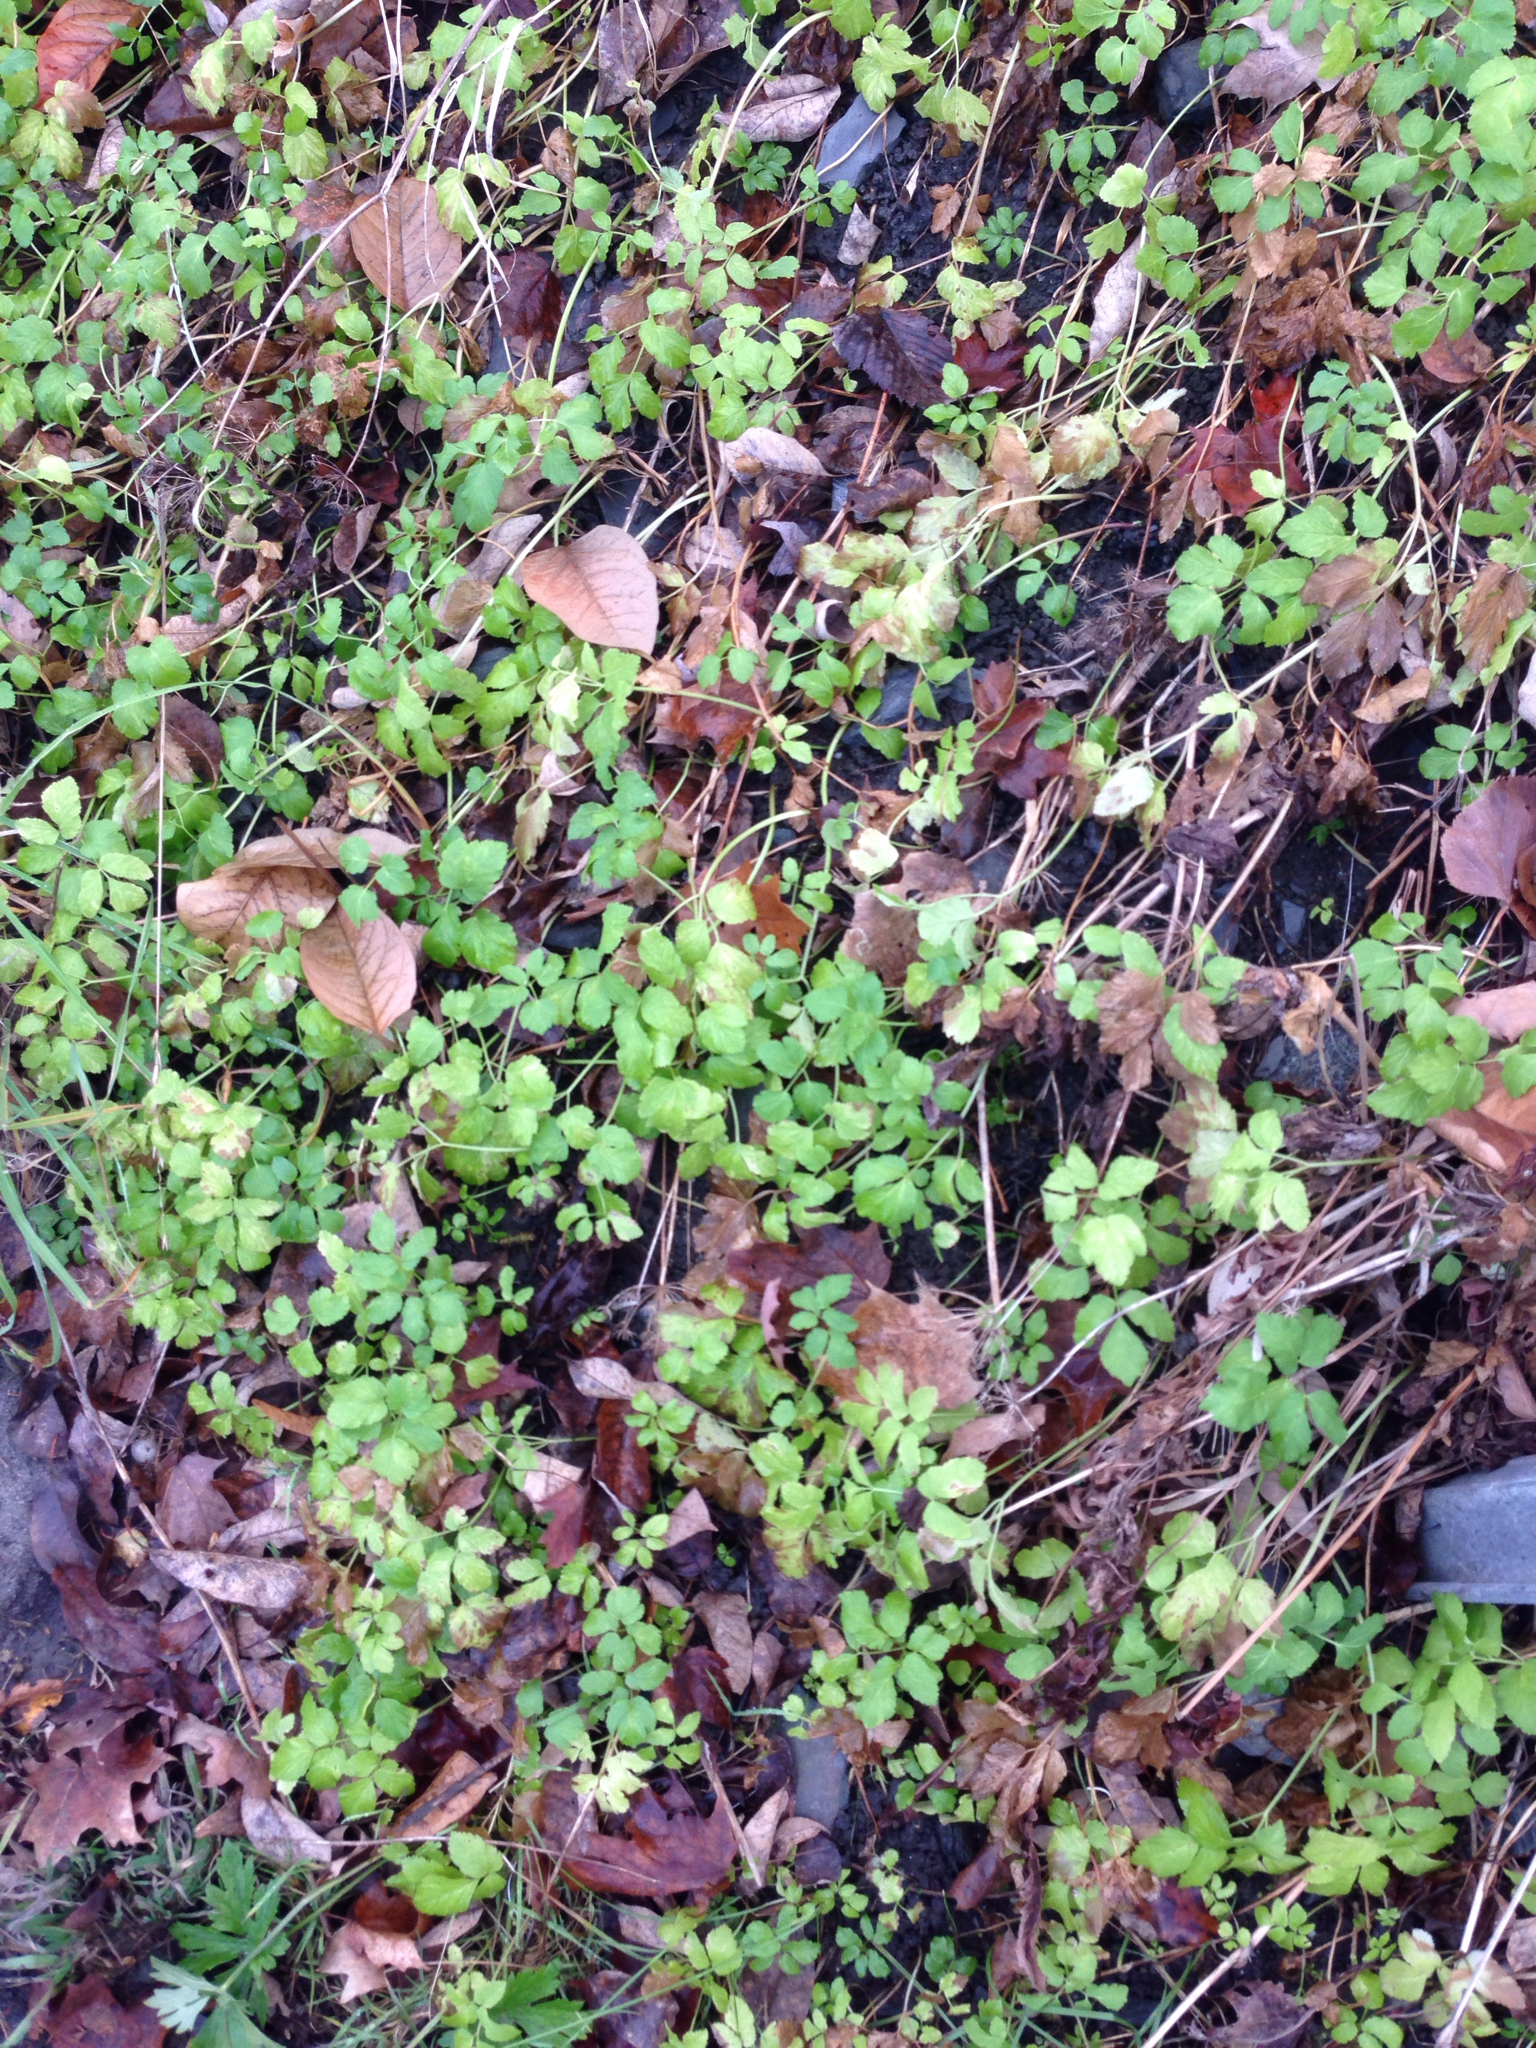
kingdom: Plantae
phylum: Tracheophyta
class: Magnoliopsida
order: Apiales
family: Apiaceae
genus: Aegopodium
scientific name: Aegopodium podagraria
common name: Ground-elder
